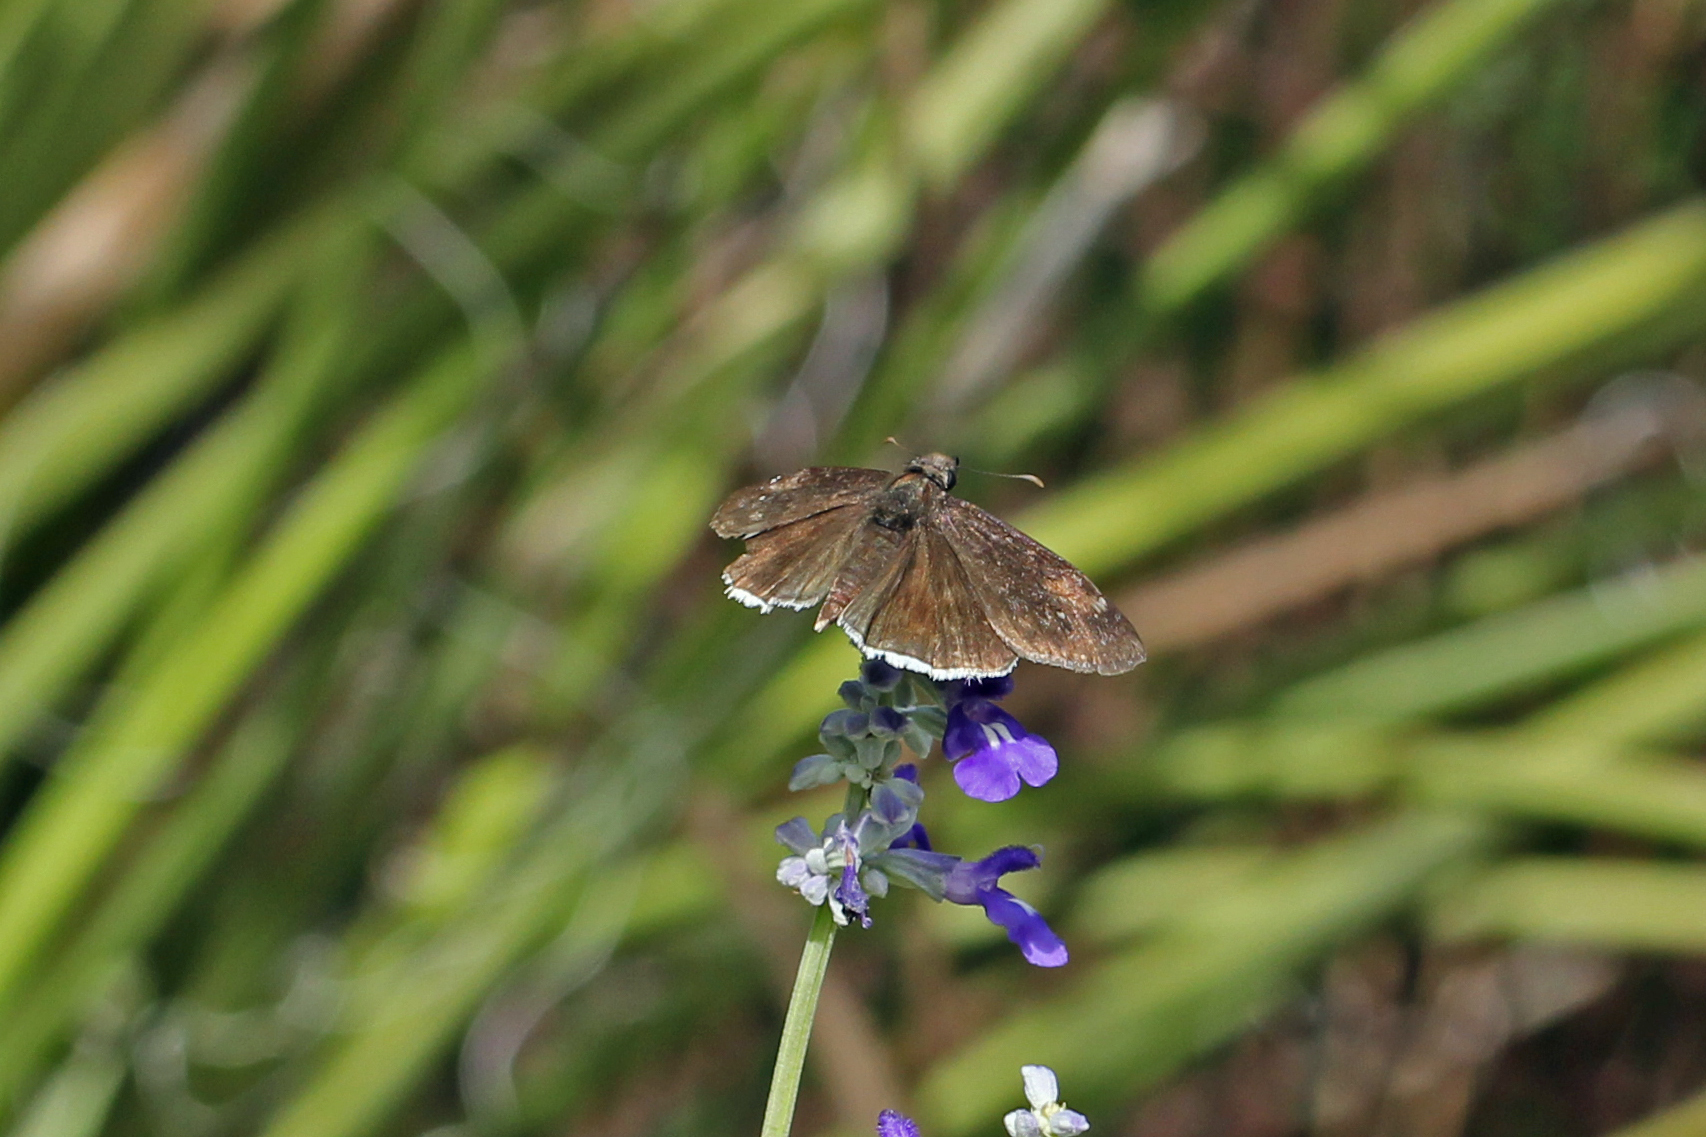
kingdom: Animalia
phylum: Arthropoda
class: Insecta
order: Lepidoptera
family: Hesperiidae
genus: Erynnis
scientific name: Erynnis funeralis
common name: Funereal duskywing
